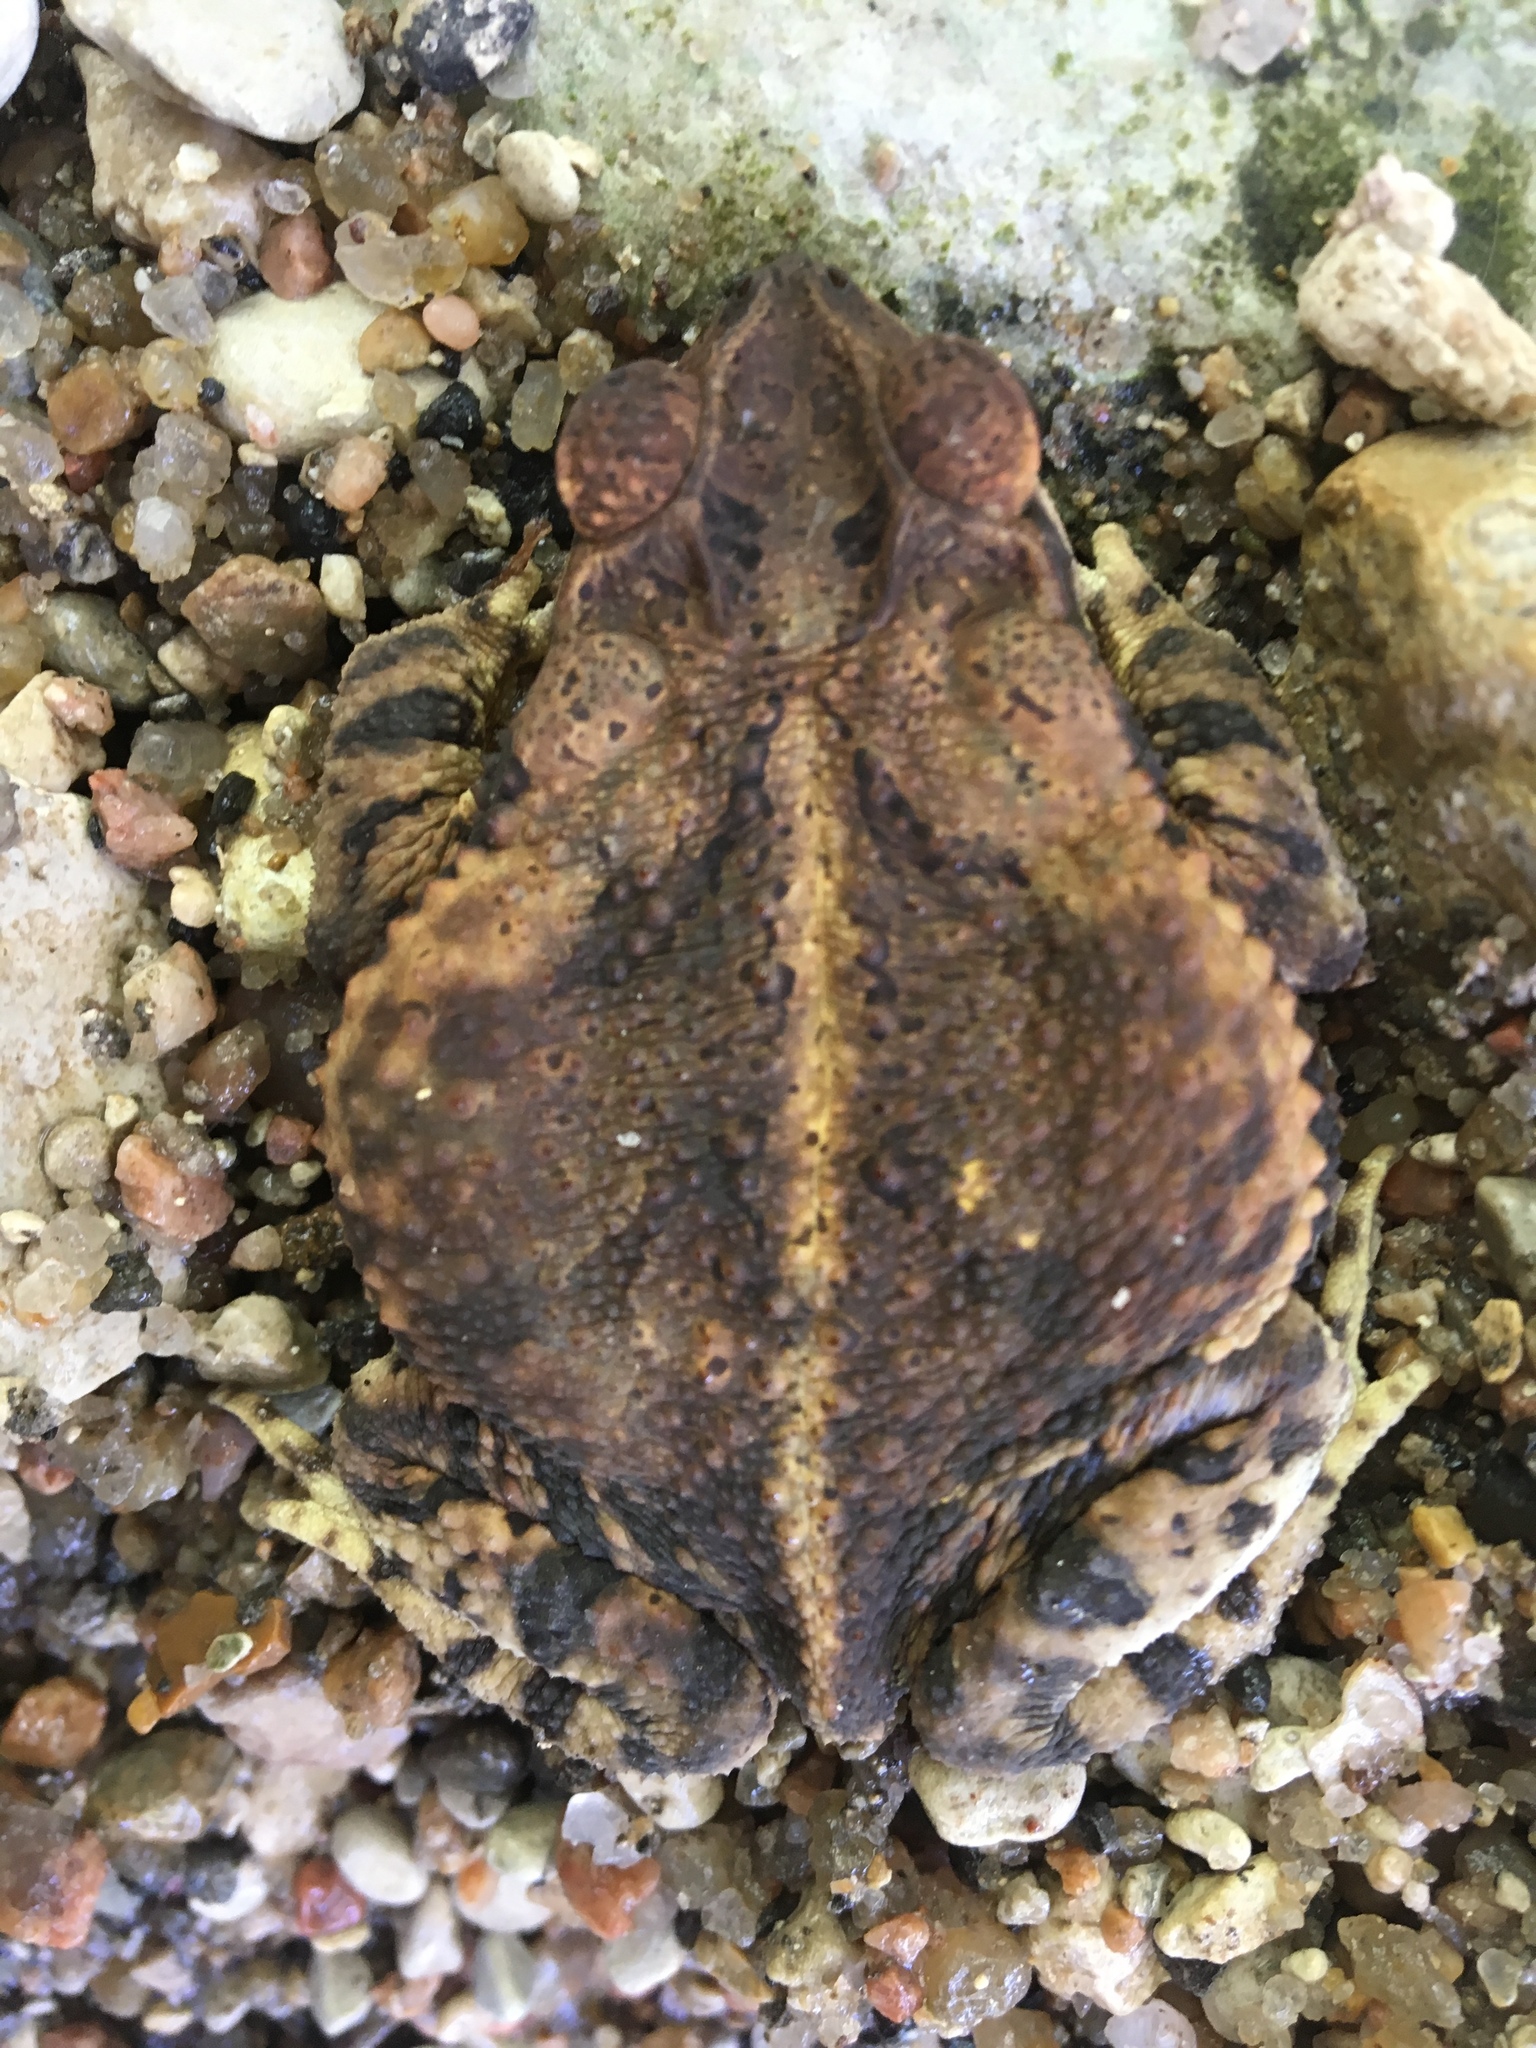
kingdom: Animalia
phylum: Chordata
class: Amphibia
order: Anura
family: Bufonidae
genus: Incilius
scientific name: Incilius nebulifer
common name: Gulf coast toad
